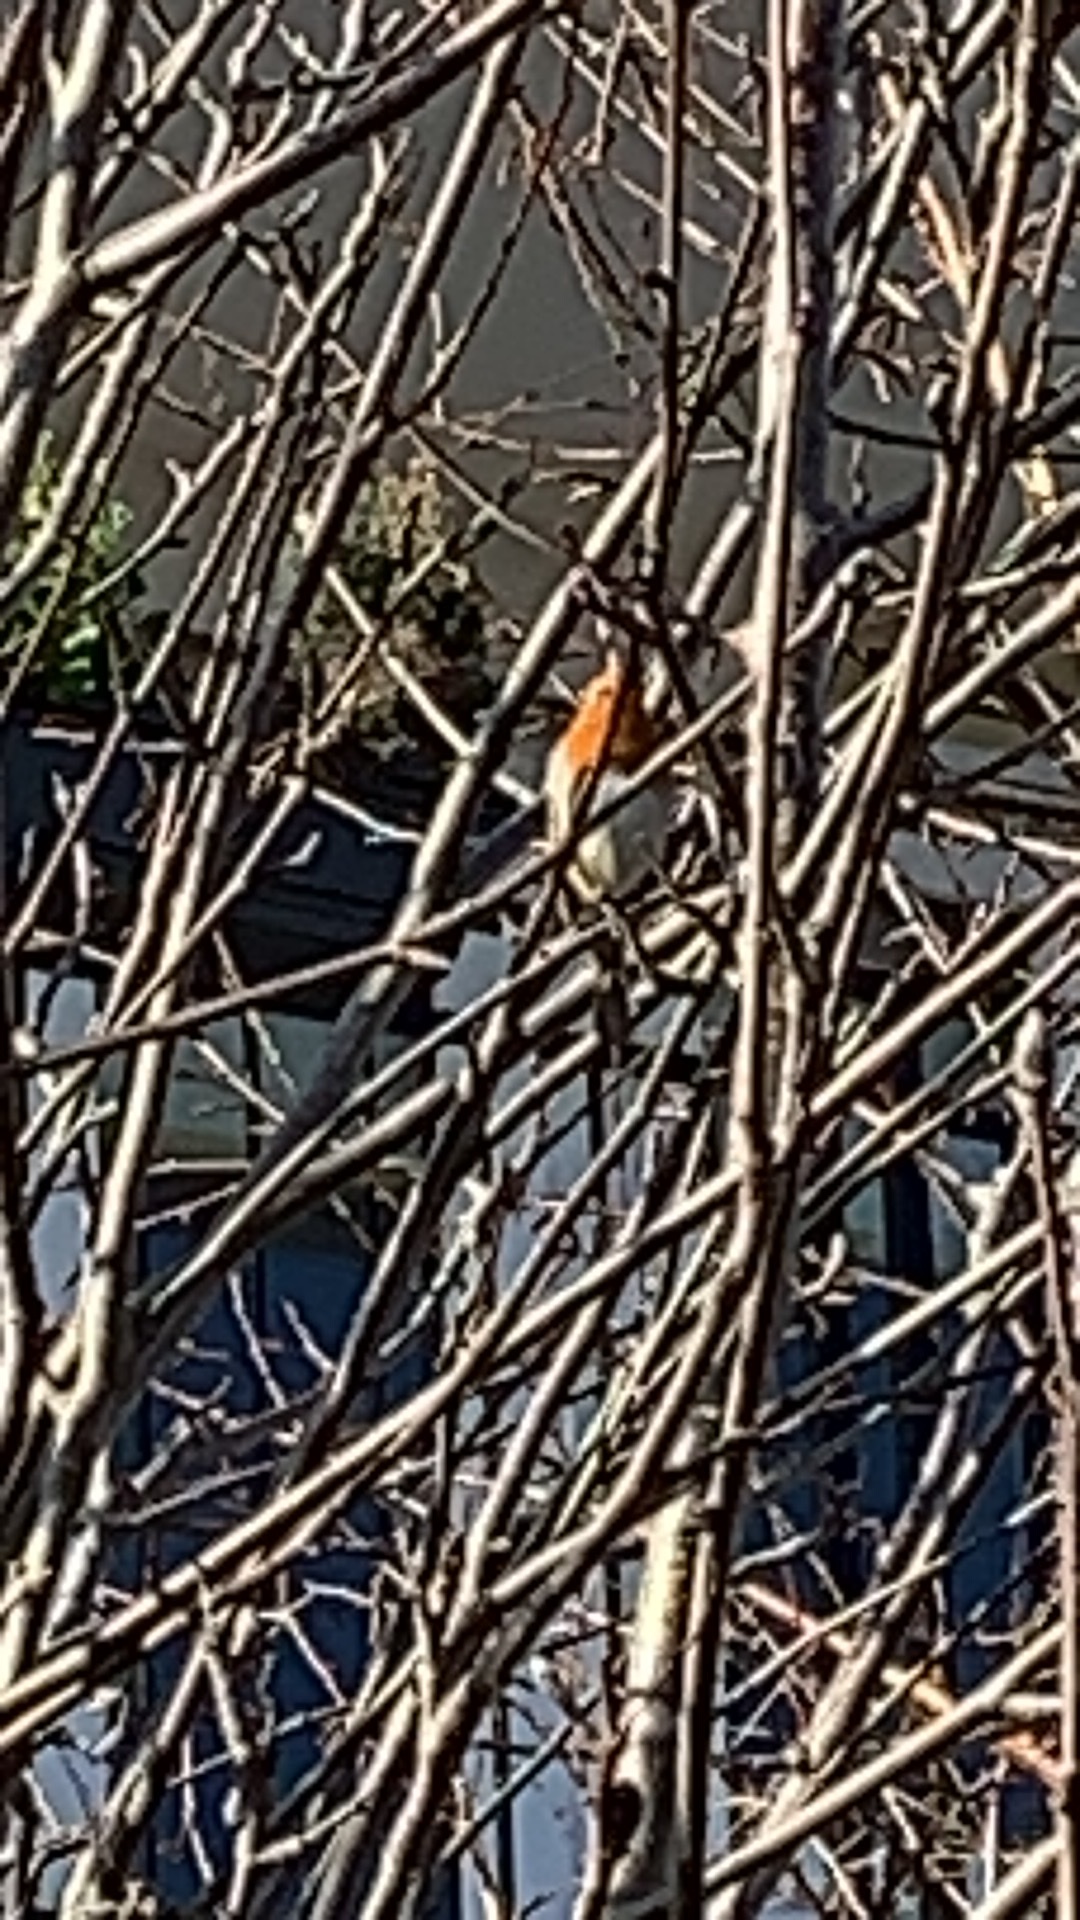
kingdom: Animalia
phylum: Chordata
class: Aves
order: Passeriformes
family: Muscicapidae
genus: Erithacus
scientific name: Erithacus rubecula
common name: European robin
